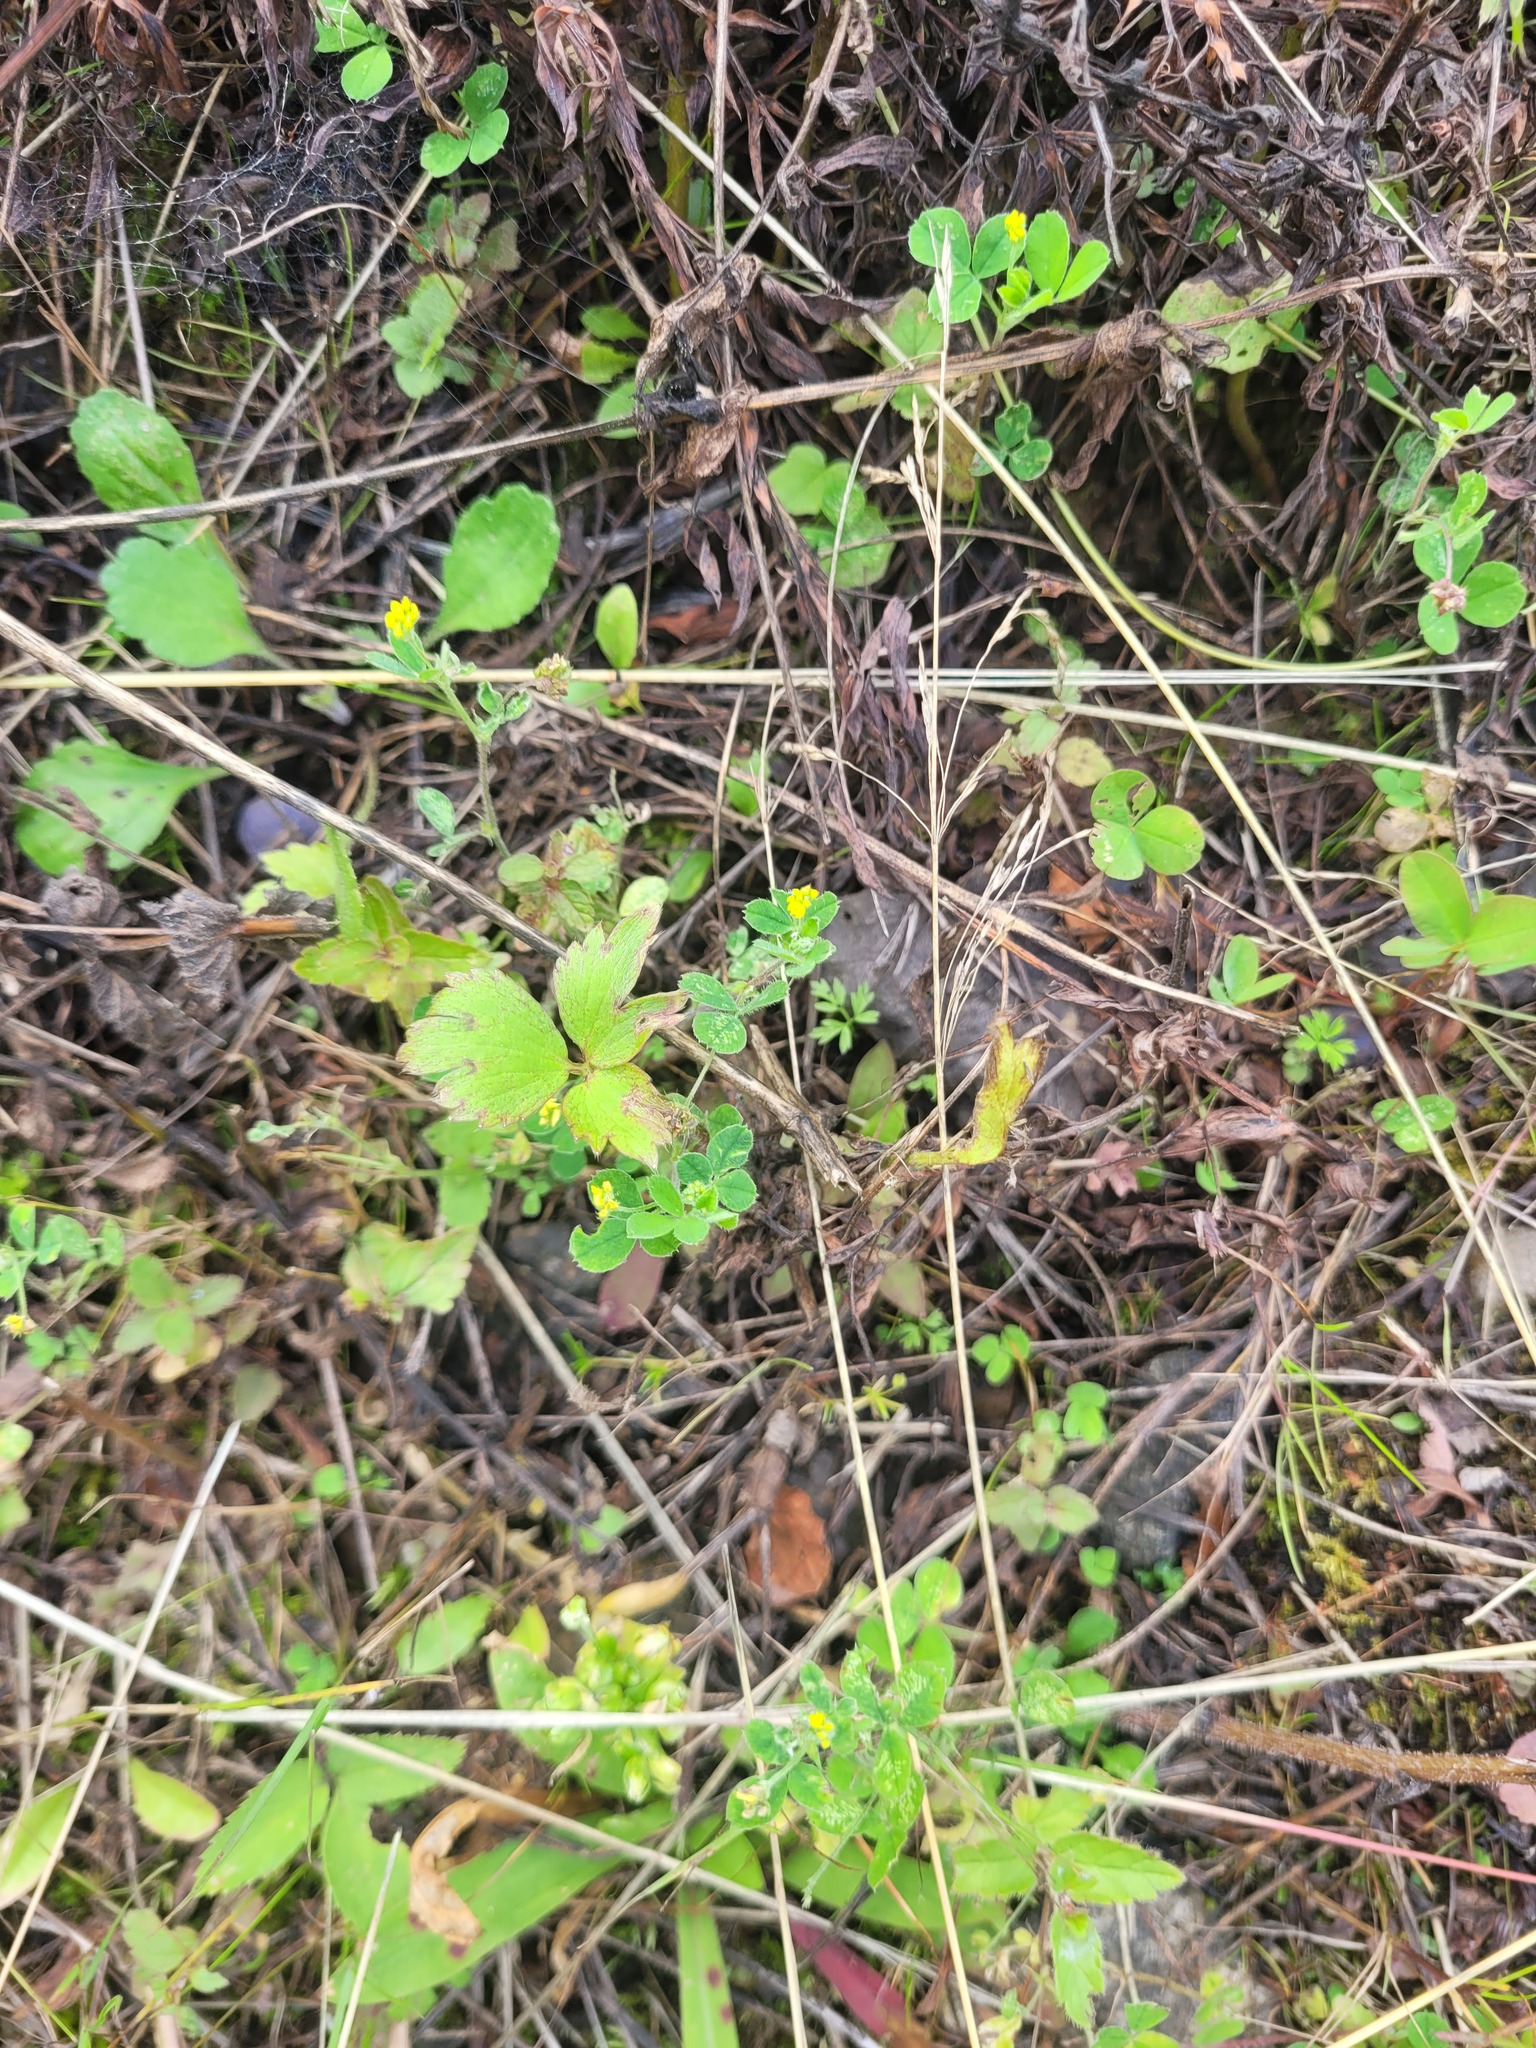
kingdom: Plantae
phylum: Tracheophyta
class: Magnoliopsida
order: Ranunculales
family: Ranunculaceae
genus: Ranunculus
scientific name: Ranunculus repens
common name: Creeping buttercup
